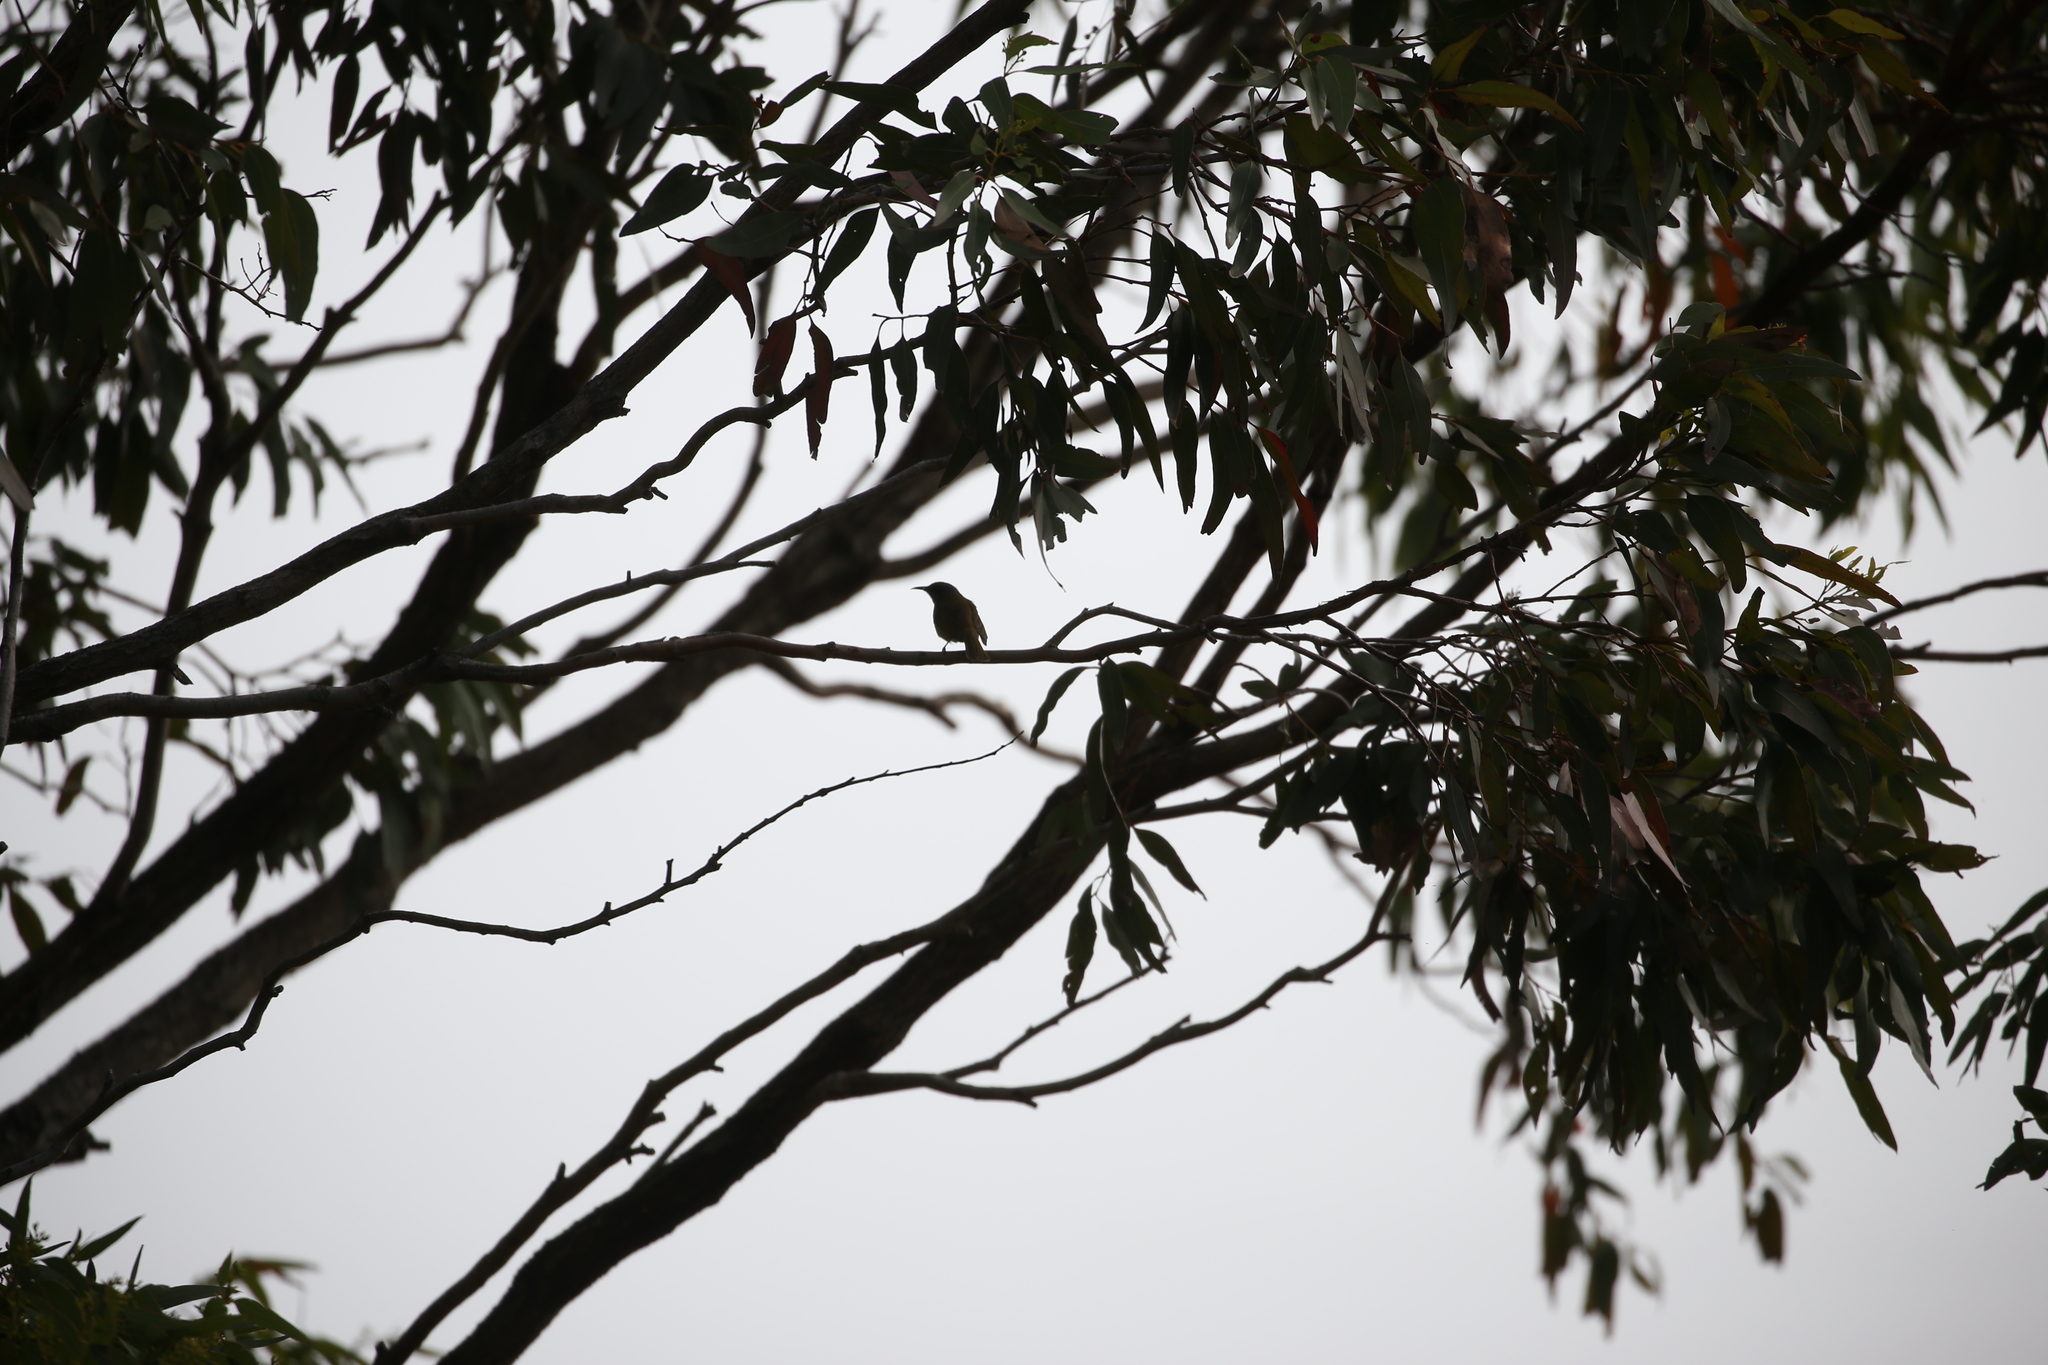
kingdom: Animalia
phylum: Chordata
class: Aves
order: Passeriformes
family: Meliphagidae
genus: Lichmera
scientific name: Lichmera indistincta
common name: Brown honeyeater
